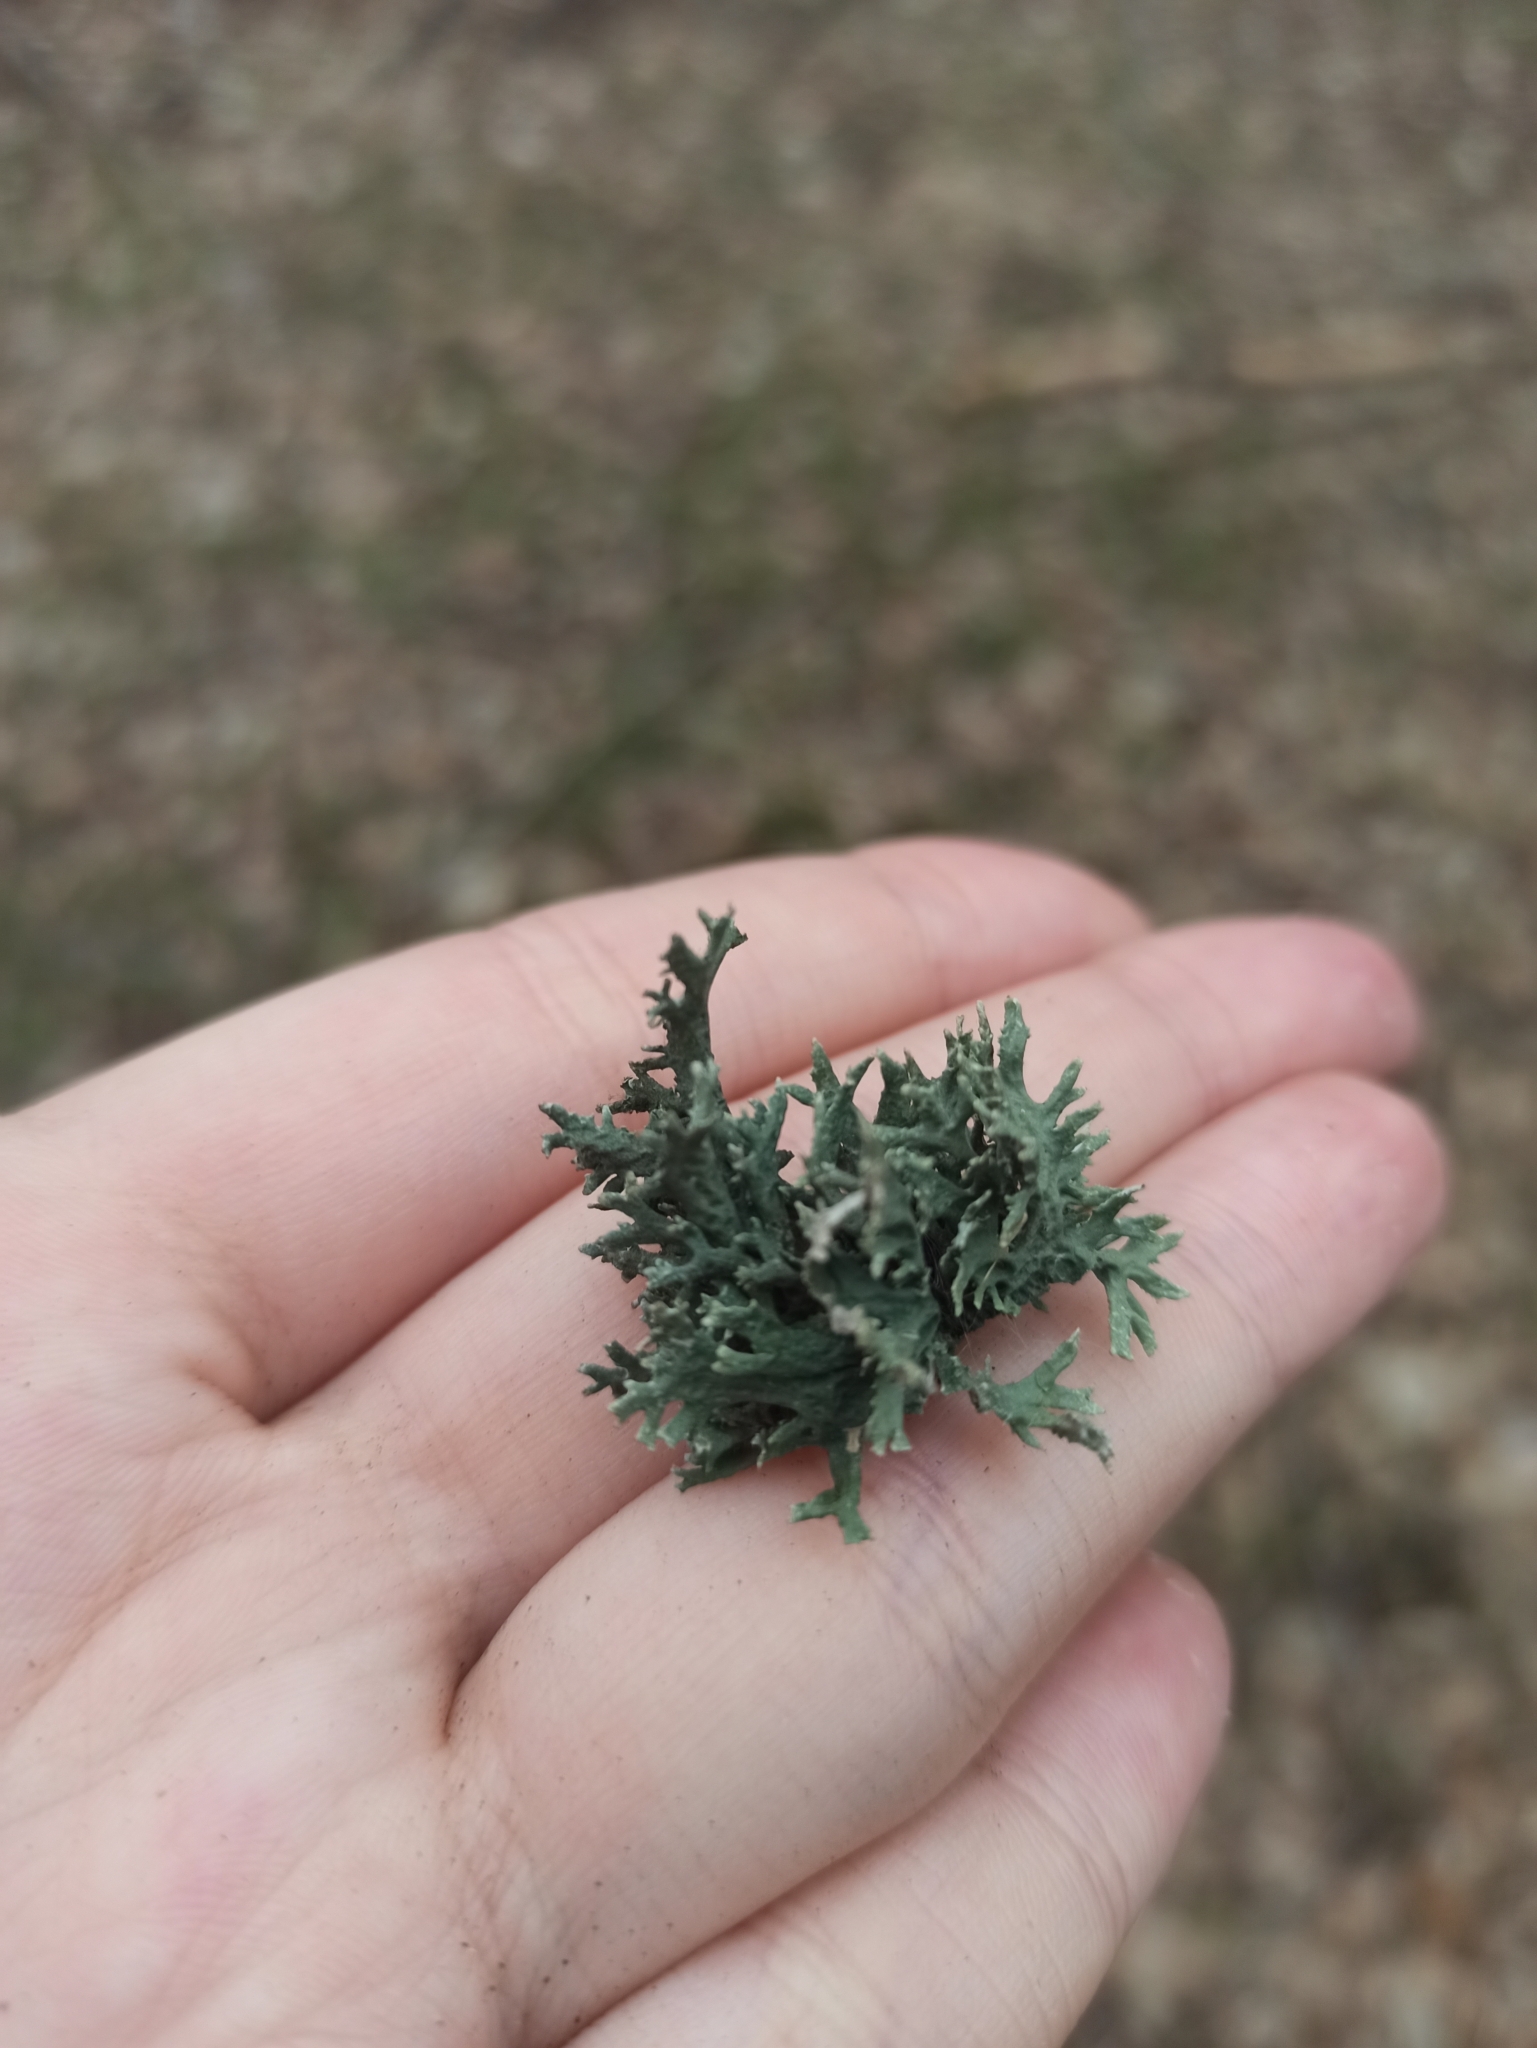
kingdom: Fungi
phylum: Ascomycota
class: Lecanoromycetes
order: Lecanorales
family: Parmeliaceae
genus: Evernia
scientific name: Evernia prunastri
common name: Oak moss
